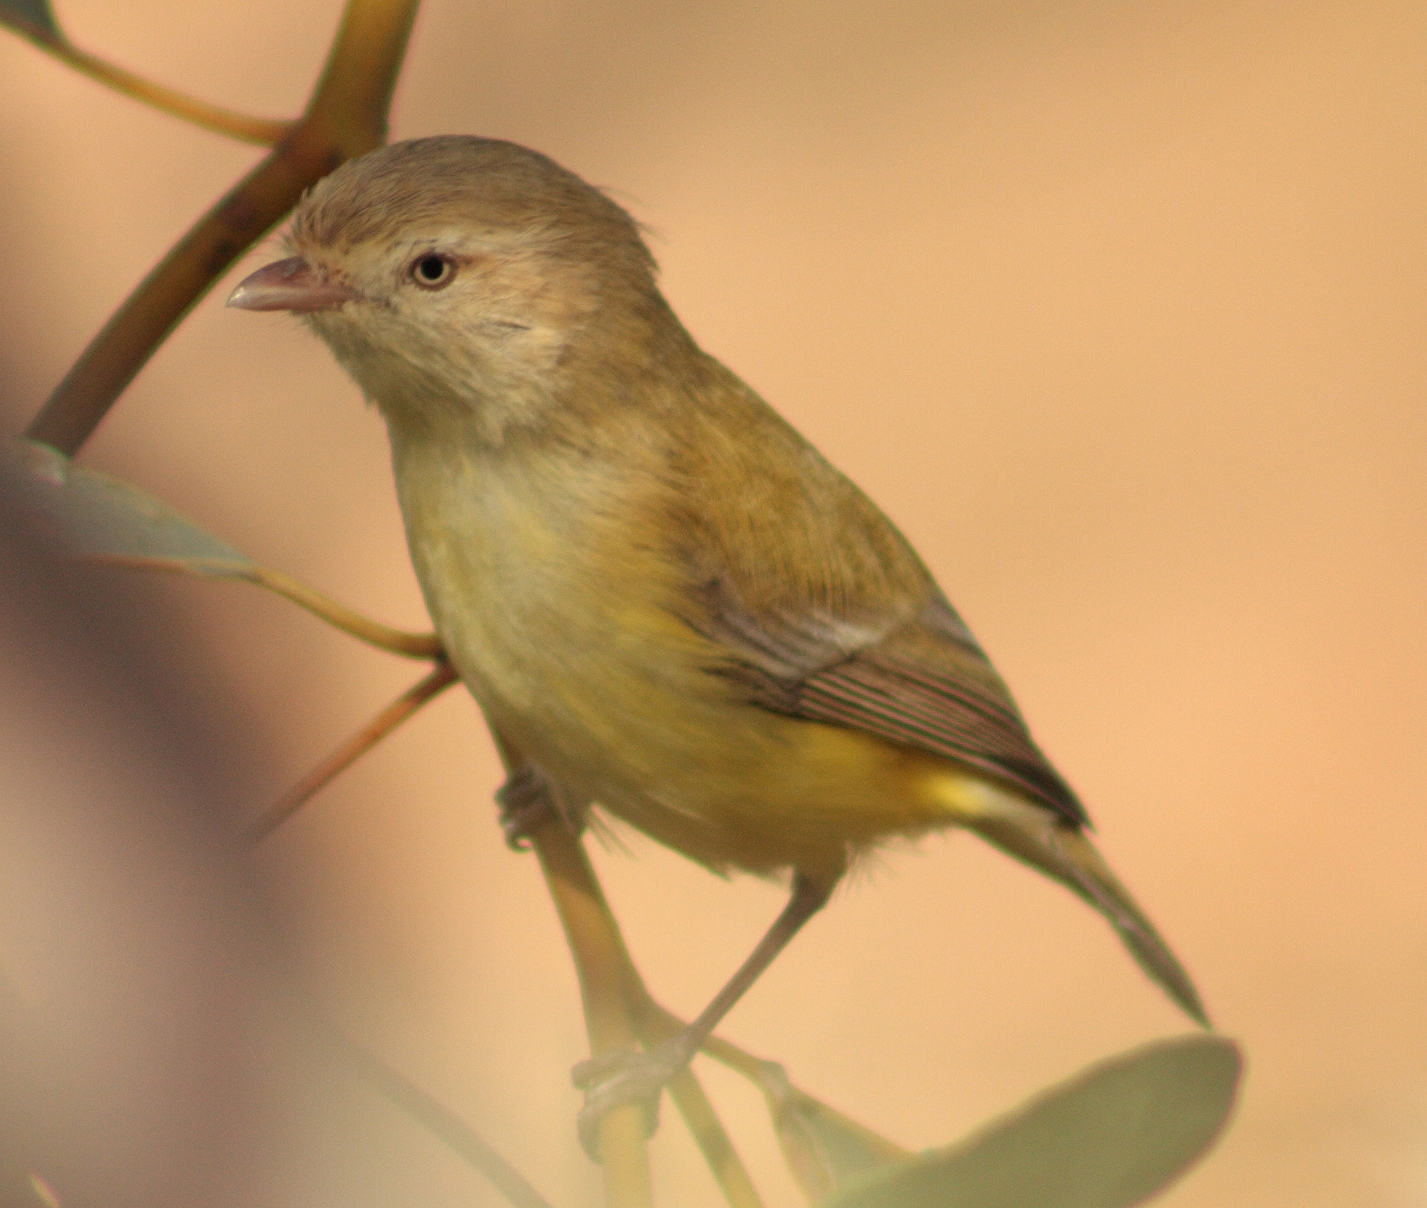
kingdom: Animalia
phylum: Chordata
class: Aves
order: Passeriformes
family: Acanthizidae
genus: Smicrornis
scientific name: Smicrornis brevirostris
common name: Weebill
